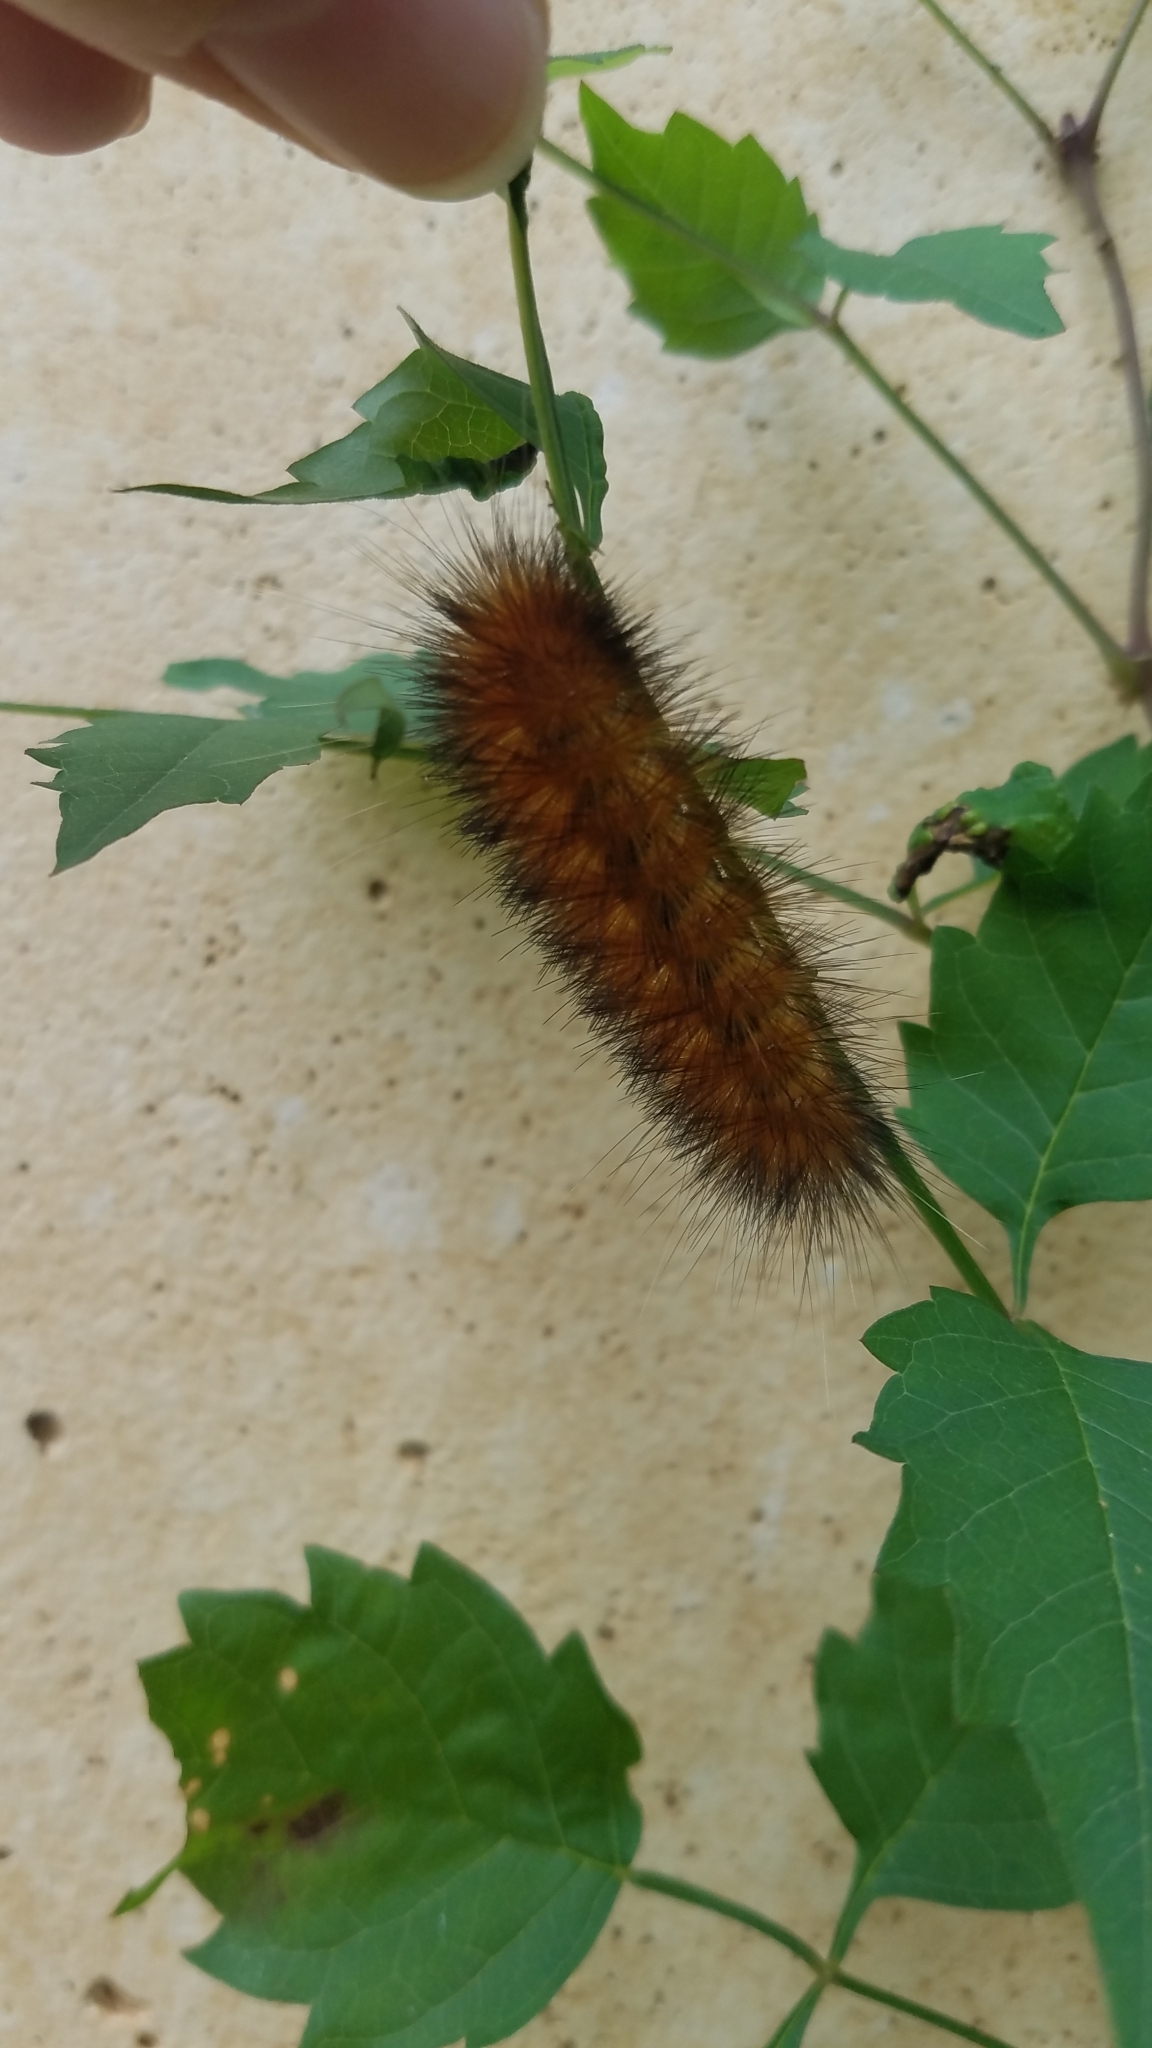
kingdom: Animalia
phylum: Arthropoda
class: Insecta
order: Lepidoptera
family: Erebidae
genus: Spilosoma
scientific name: Spilosoma virginica
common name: Virginia tiger moth
